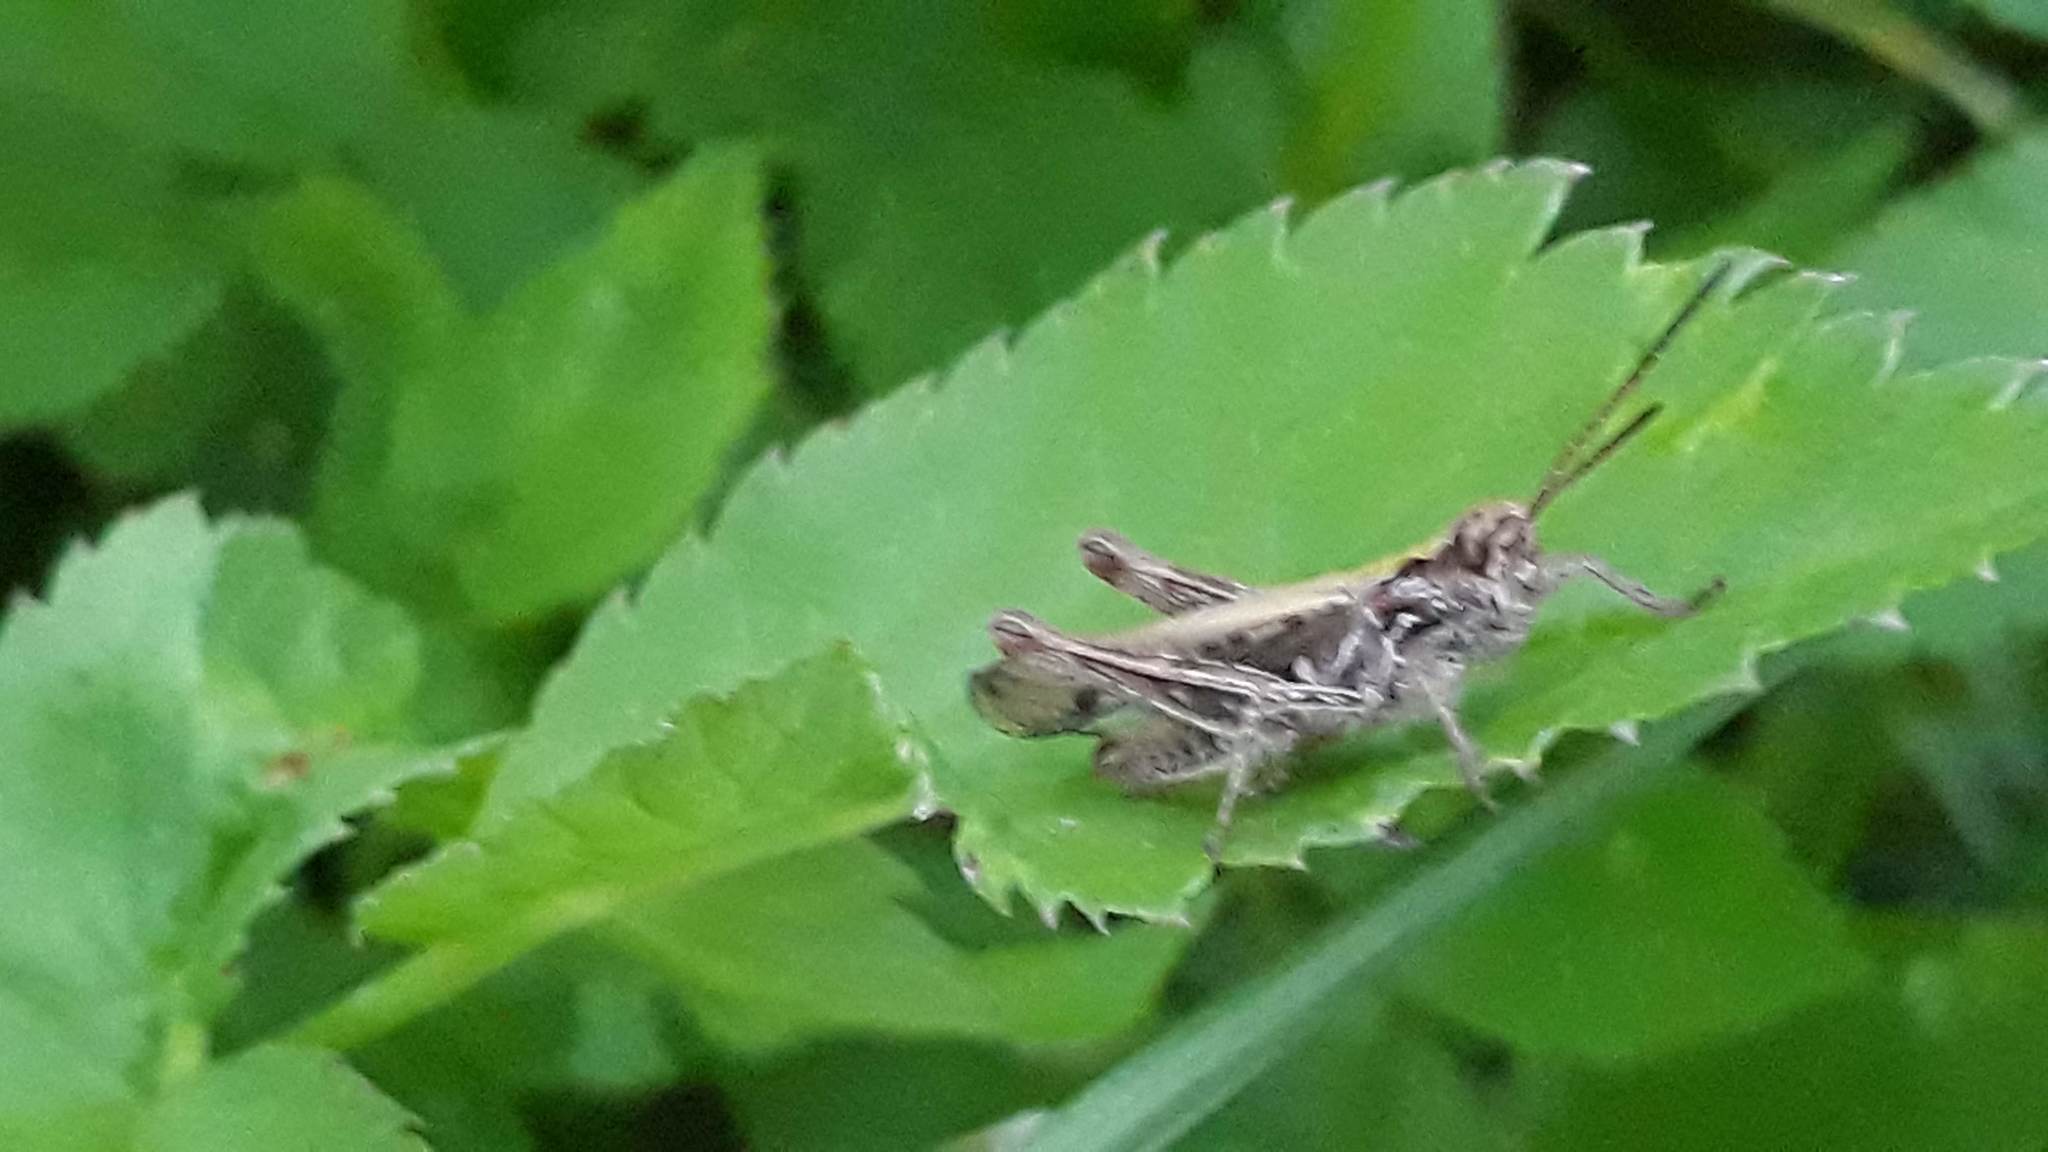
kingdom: Animalia
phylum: Arthropoda
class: Insecta
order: Orthoptera
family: Acrididae
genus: Chorthippus
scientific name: Chorthippus biguttulus
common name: Bow-winged grasshopper
